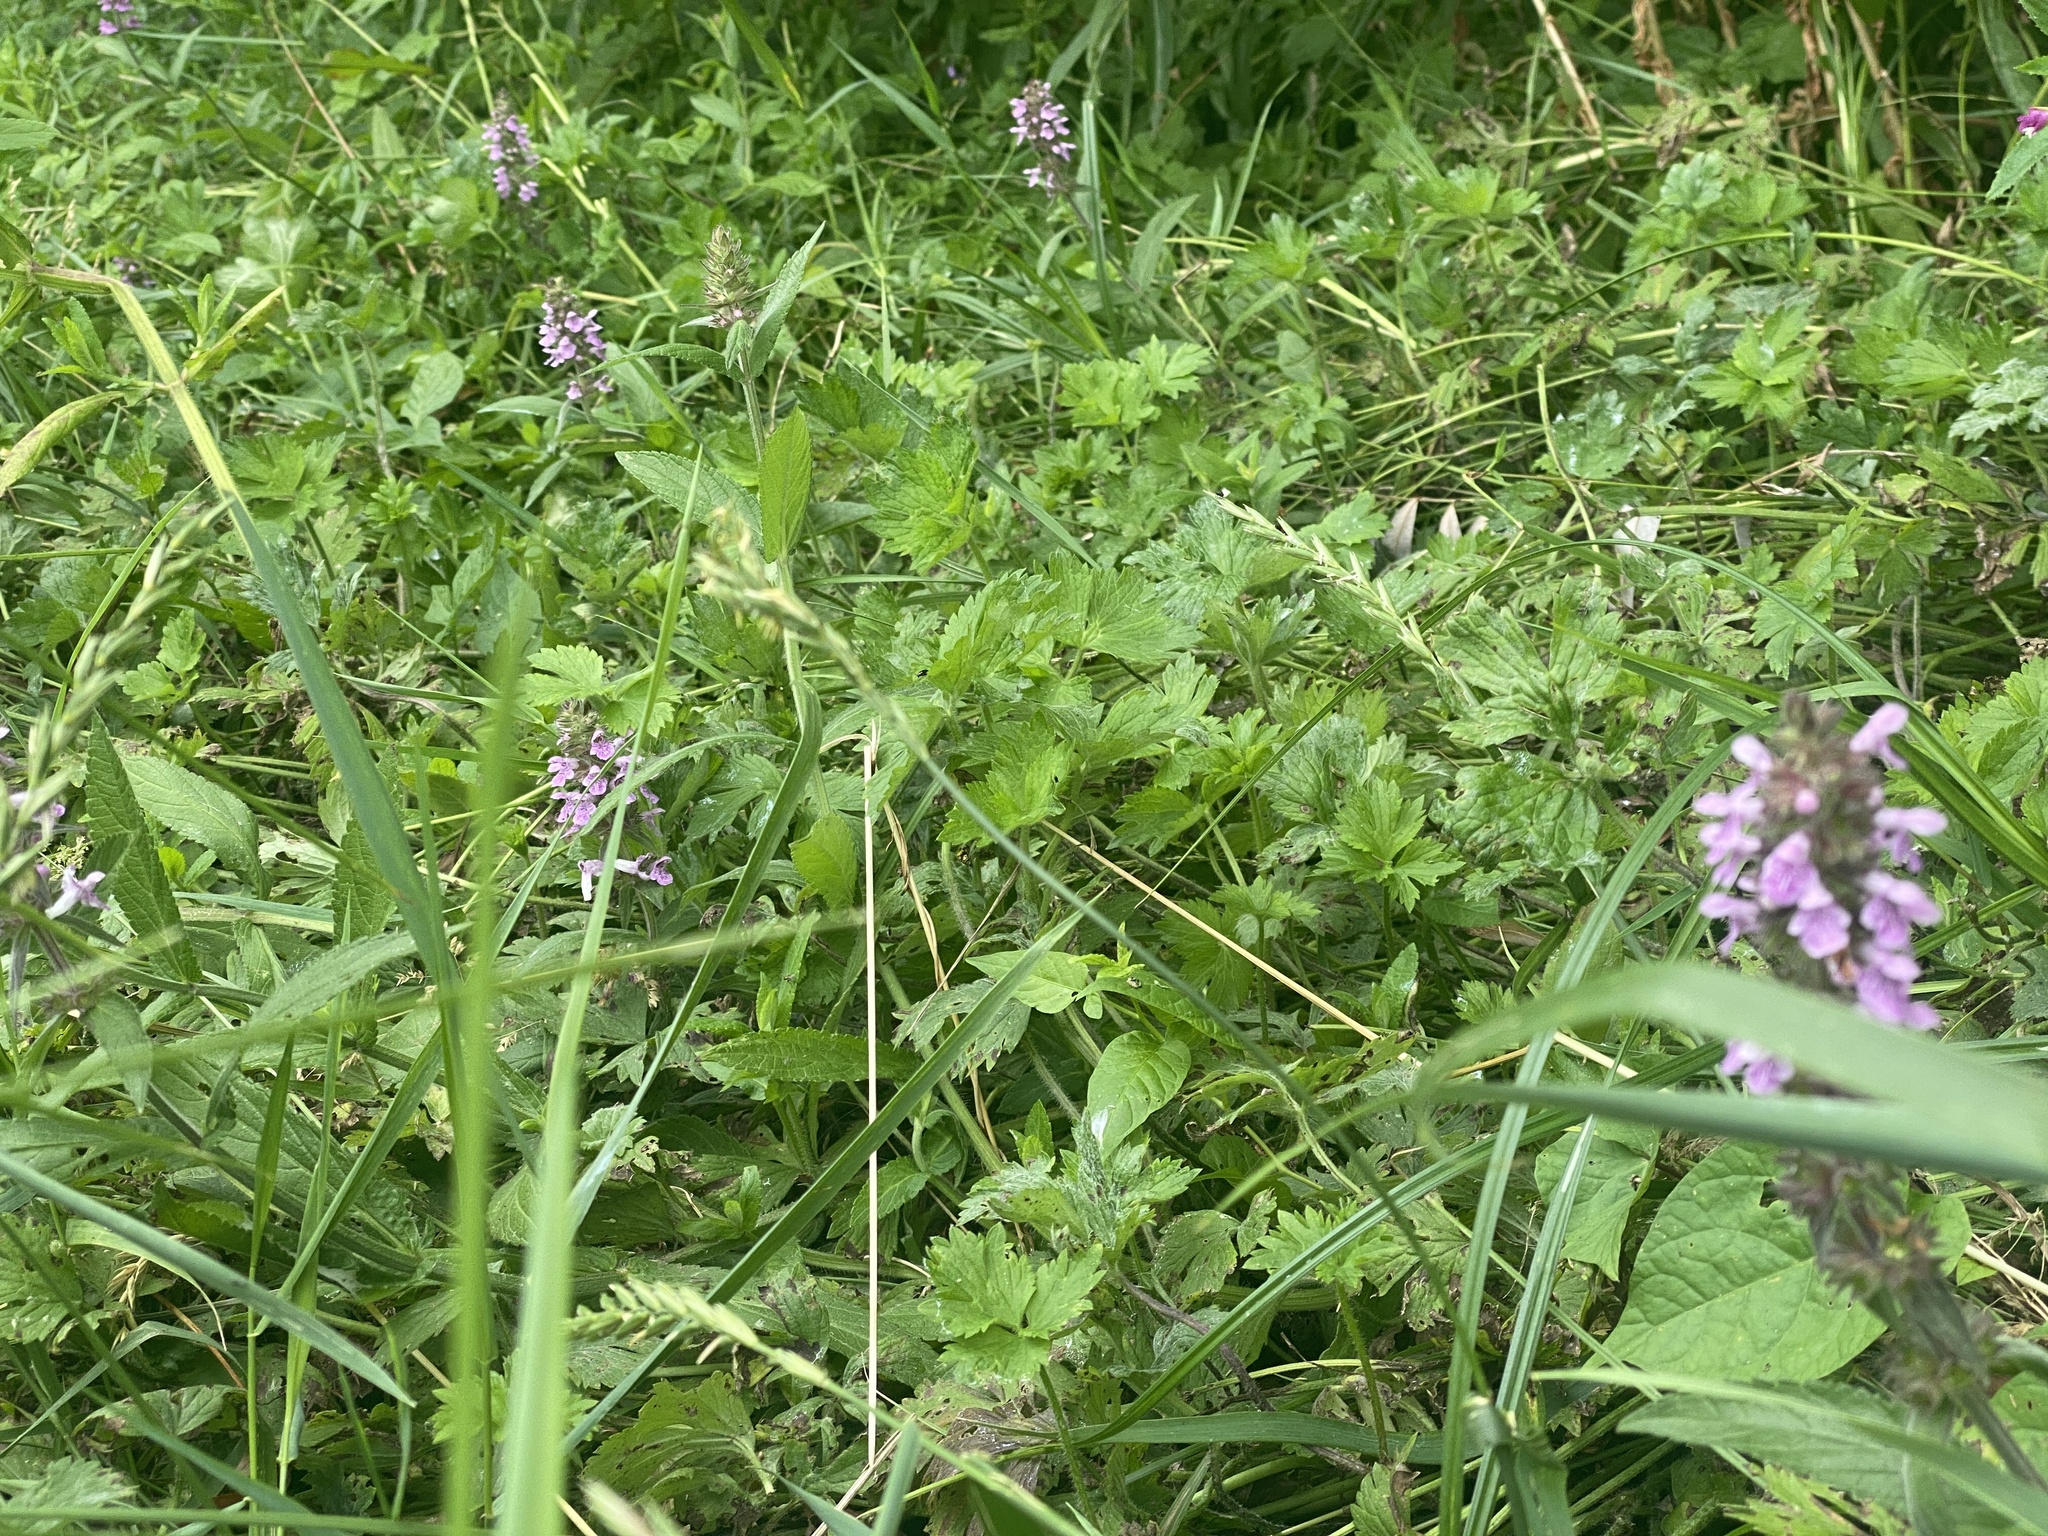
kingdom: Plantae
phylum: Tracheophyta
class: Magnoliopsida
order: Lamiales
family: Lamiaceae
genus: Stachys
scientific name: Stachys palustris
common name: Marsh woundwort
